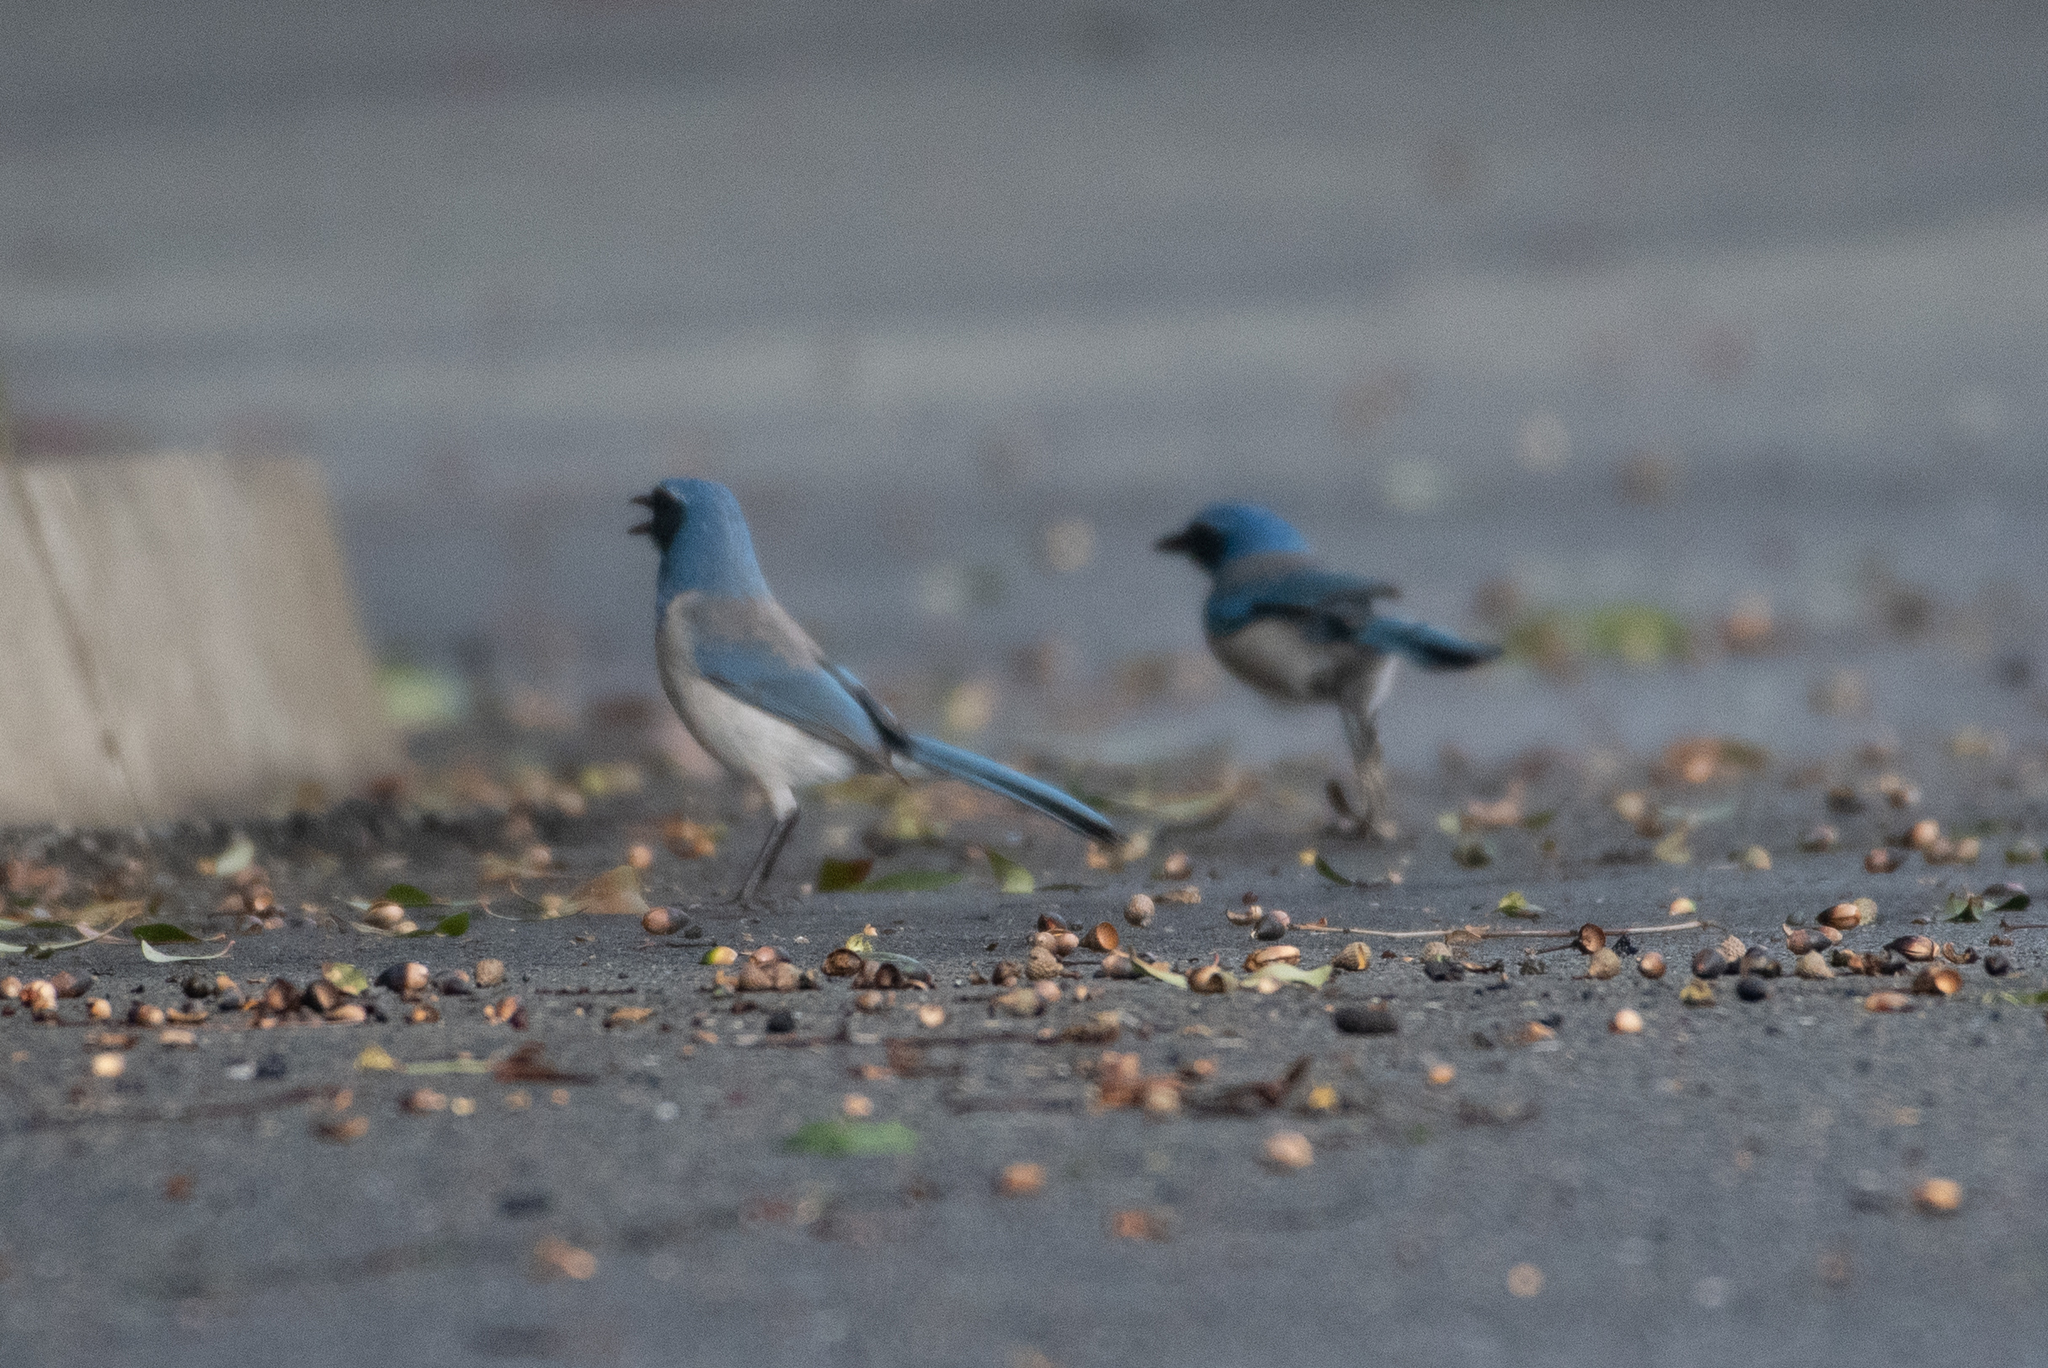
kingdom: Animalia
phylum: Chordata
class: Aves
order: Passeriformes
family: Corvidae
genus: Aphelocoma
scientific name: Aphelocoma californica
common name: California scrub-jay
